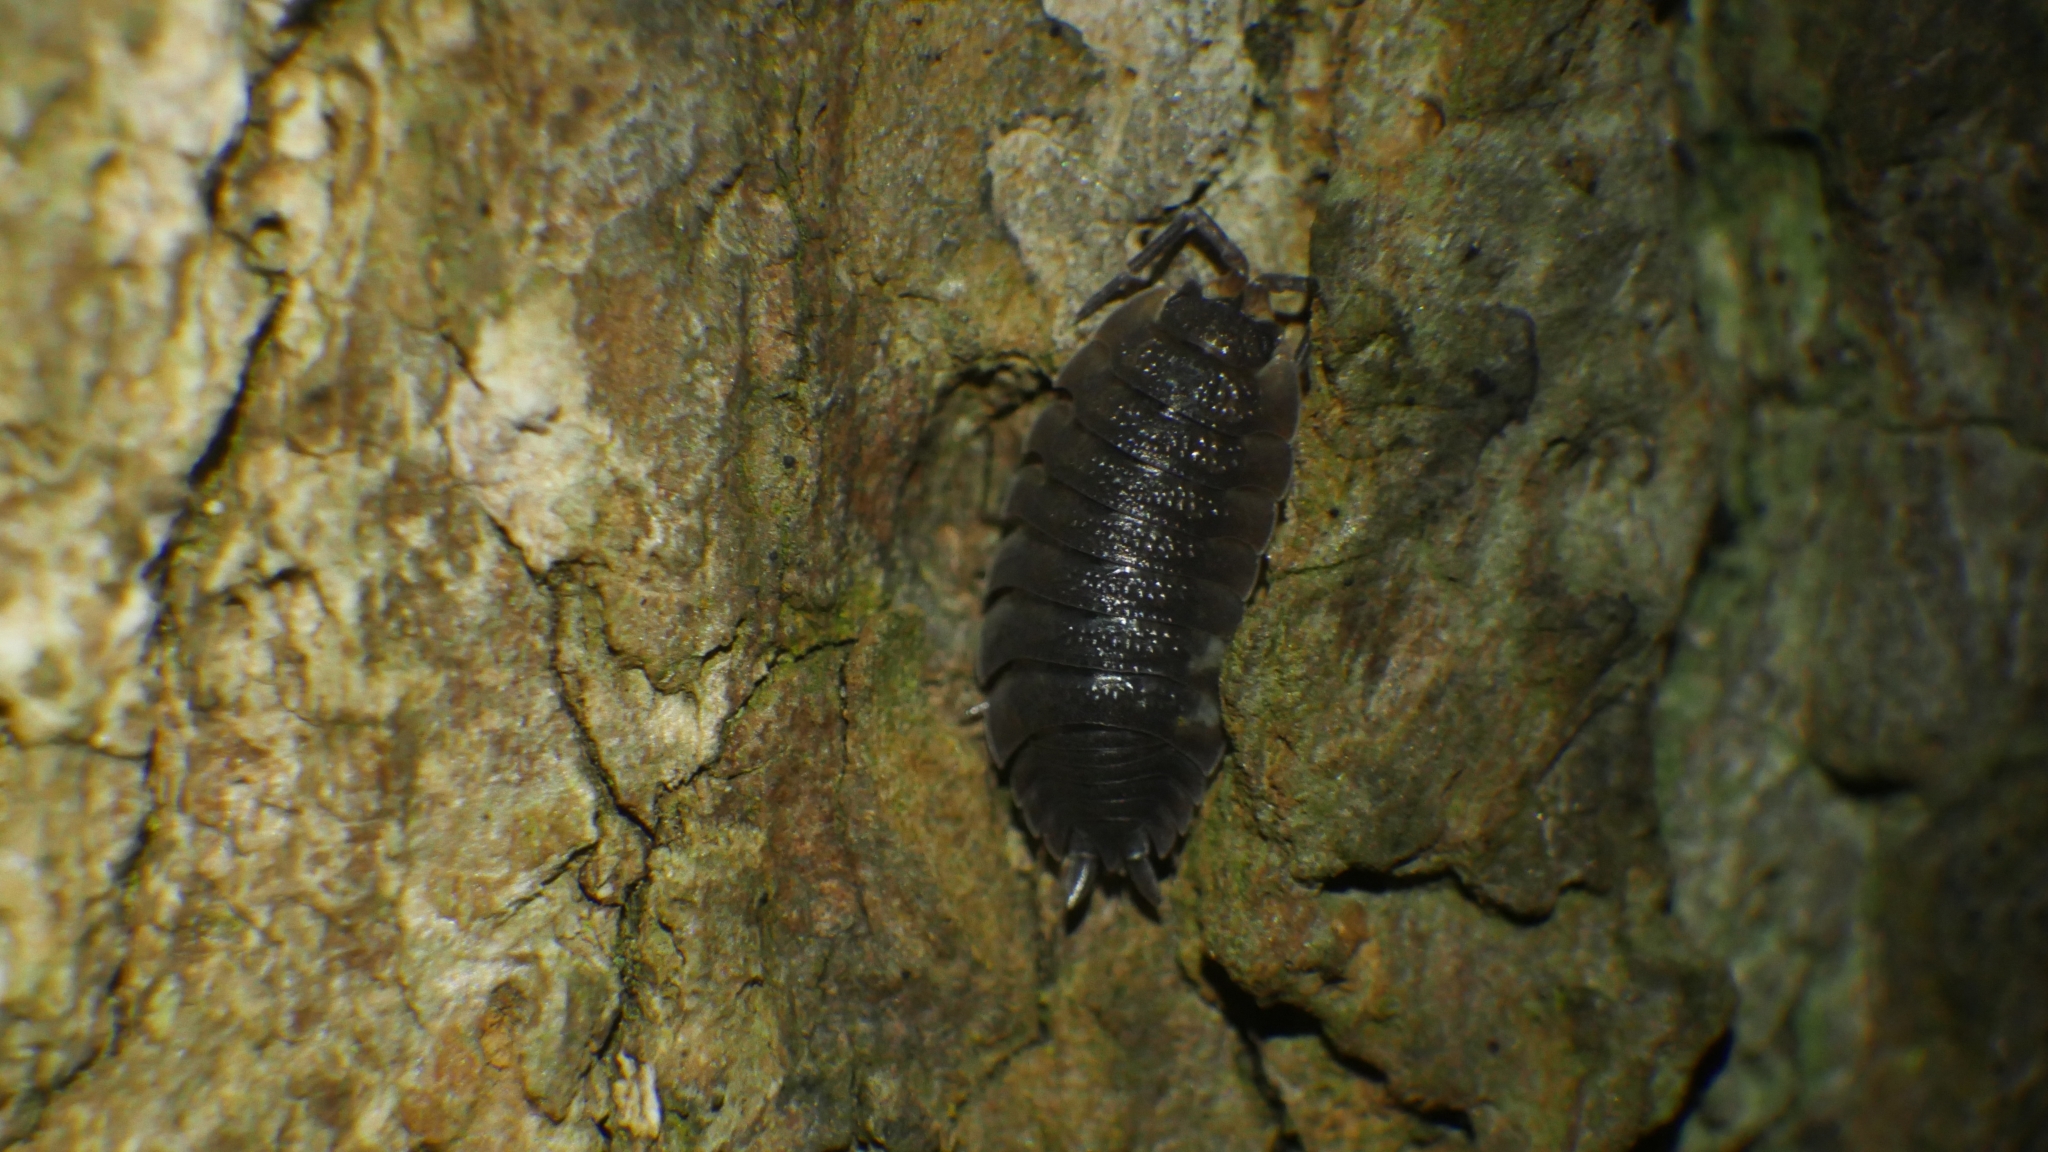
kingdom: Animalia
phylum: Arthropoda
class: Malacostraca
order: Isopoda
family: Porcellionidae
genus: Porcellio
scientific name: Porcellio scaber
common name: Common rough woodlouse
